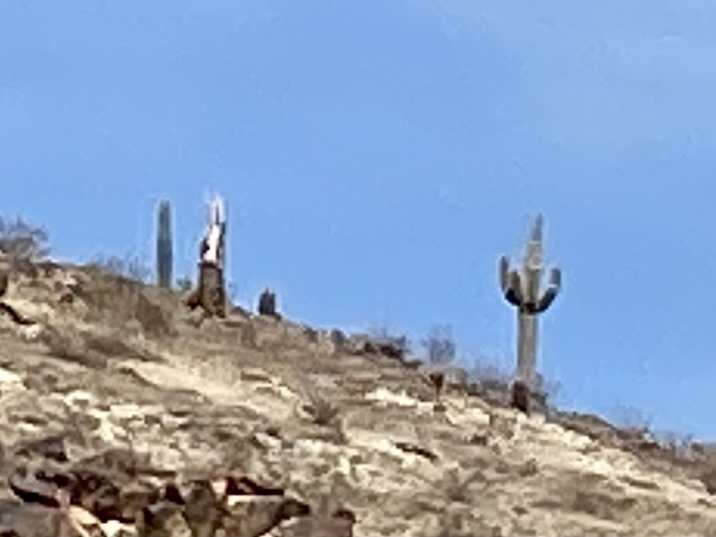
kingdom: Plantae
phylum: Tracheophyta
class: Magnoliopsida
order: Caryophyllales
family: Cactaceae
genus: Carnegiea
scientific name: Carnegiea gigantea
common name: Saguaro
